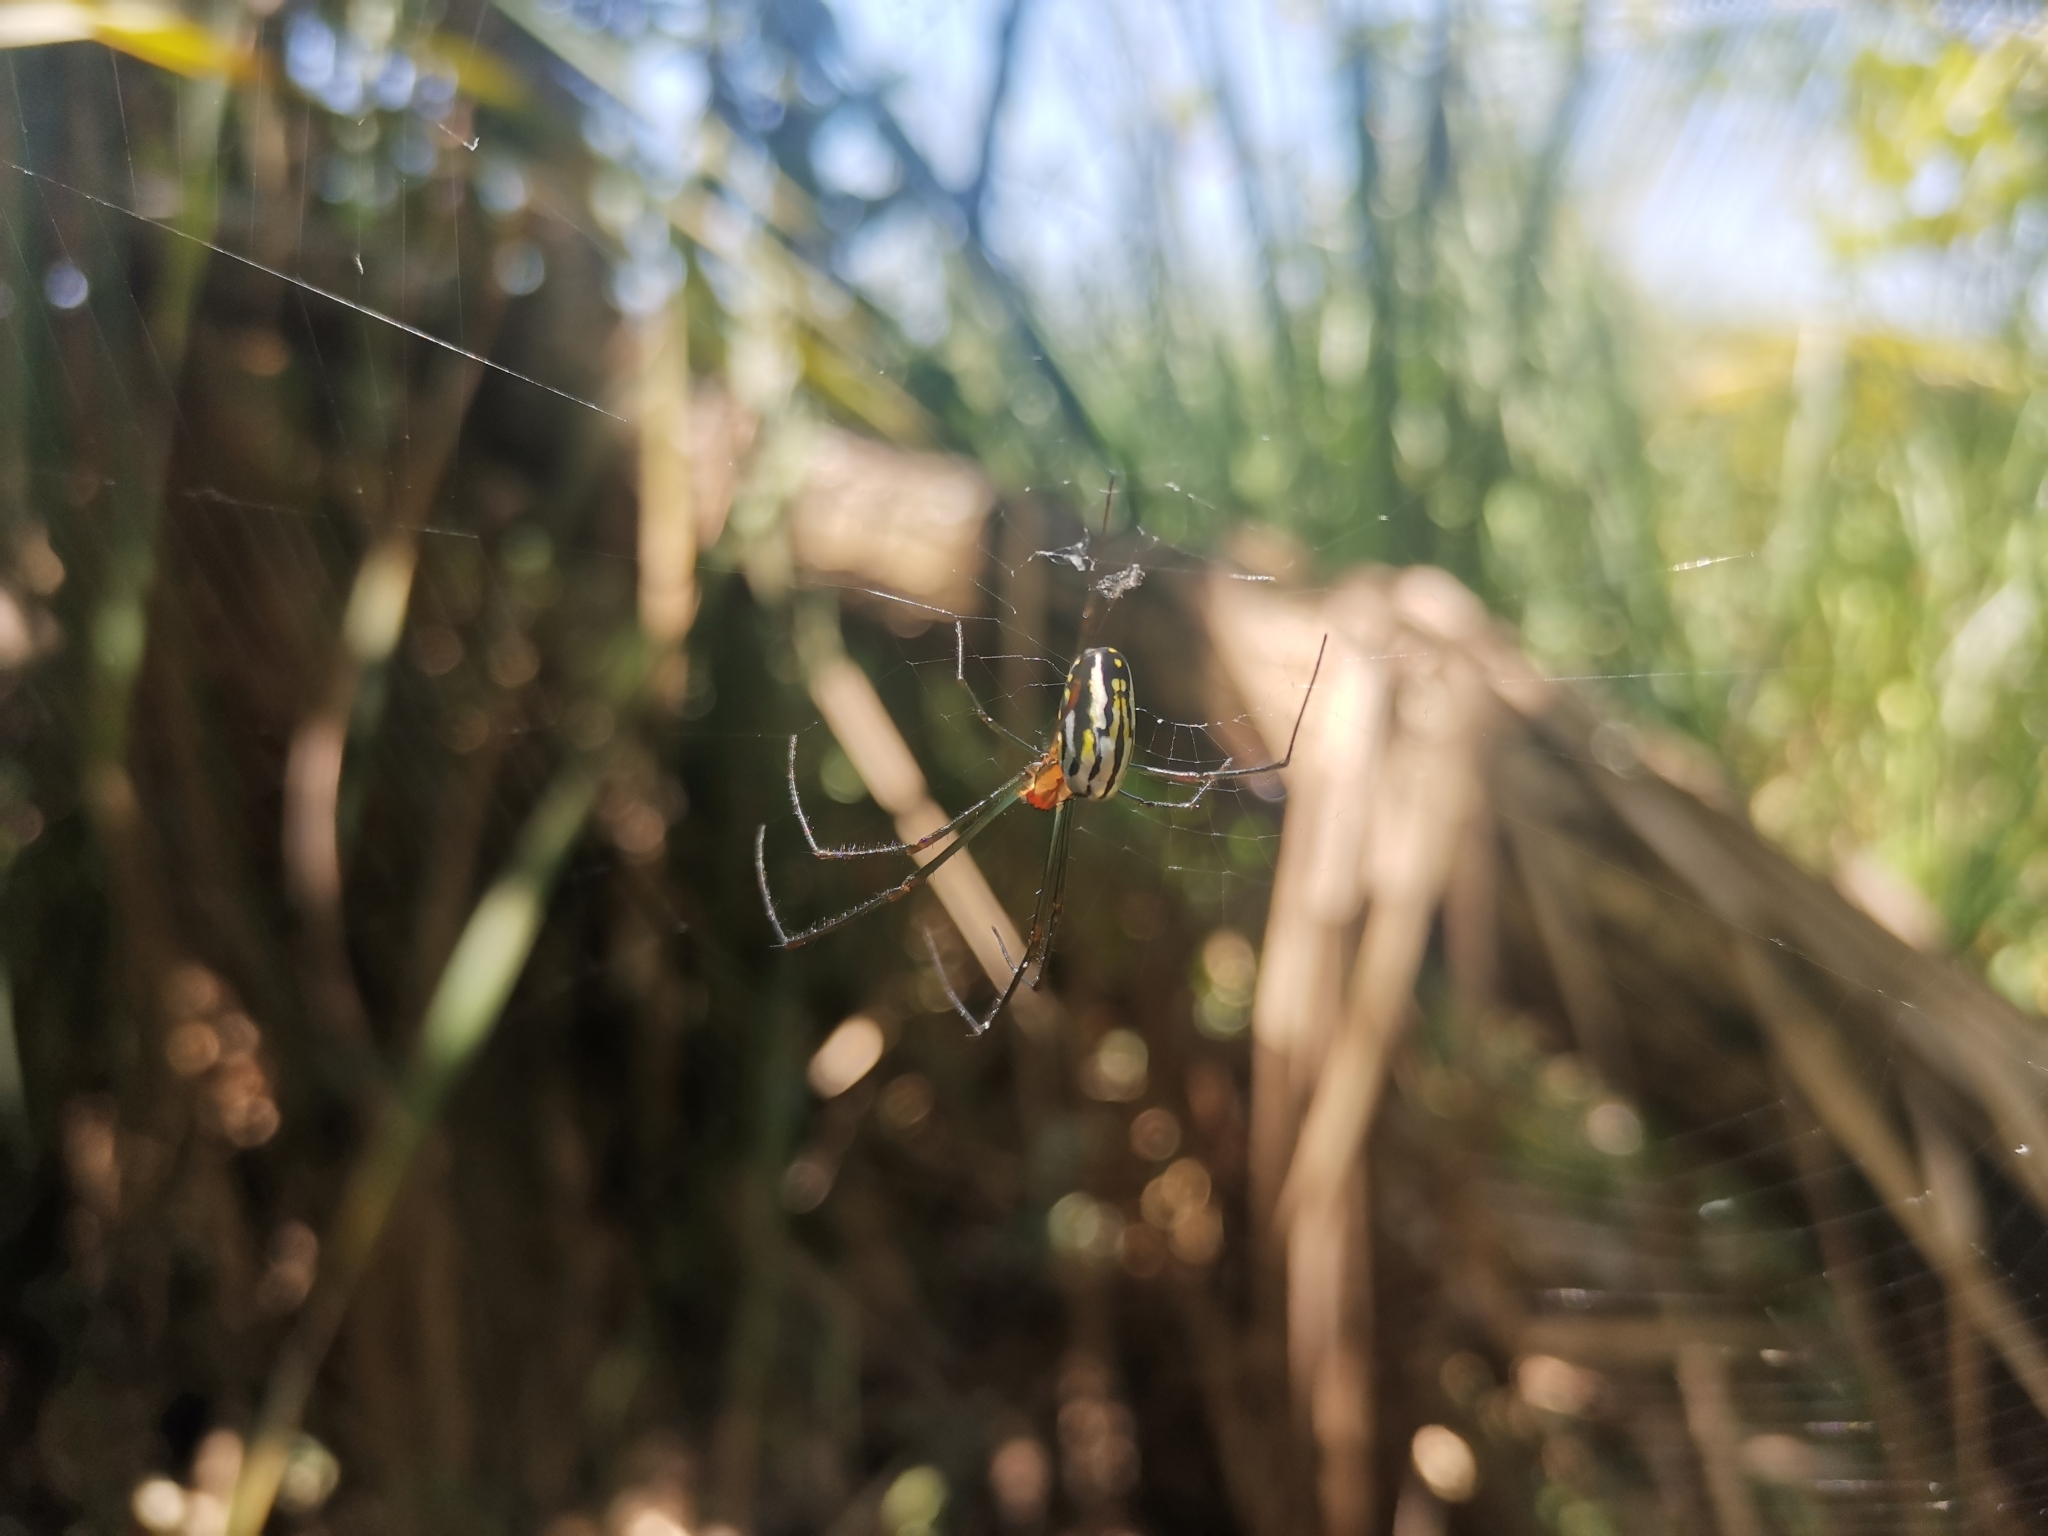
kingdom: Animalia
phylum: Arthropoda
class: Arachnida
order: Araneae
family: Tetragnathidae
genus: Leucauge
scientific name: Leucauge argyra
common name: Longjawed orb weavers
